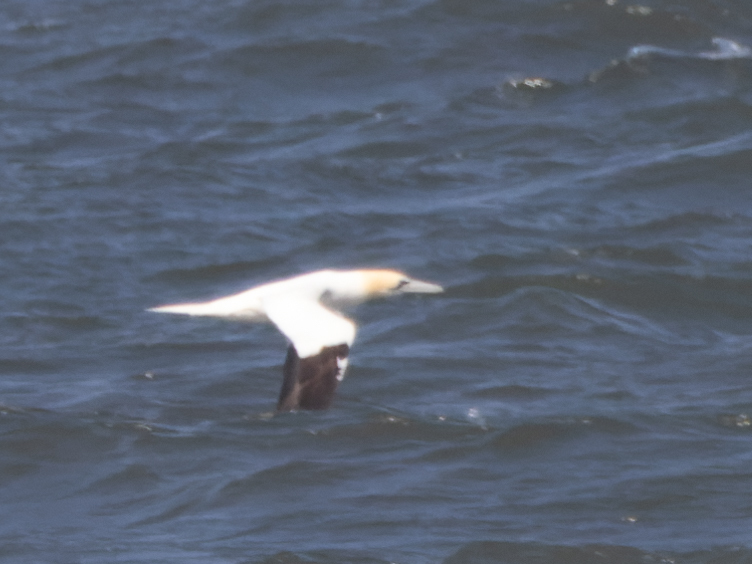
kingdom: Animalia
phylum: Chordata
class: Aves
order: Suliformes
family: Sulidae
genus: Morus
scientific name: Morus bassanus
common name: Northern gannet
